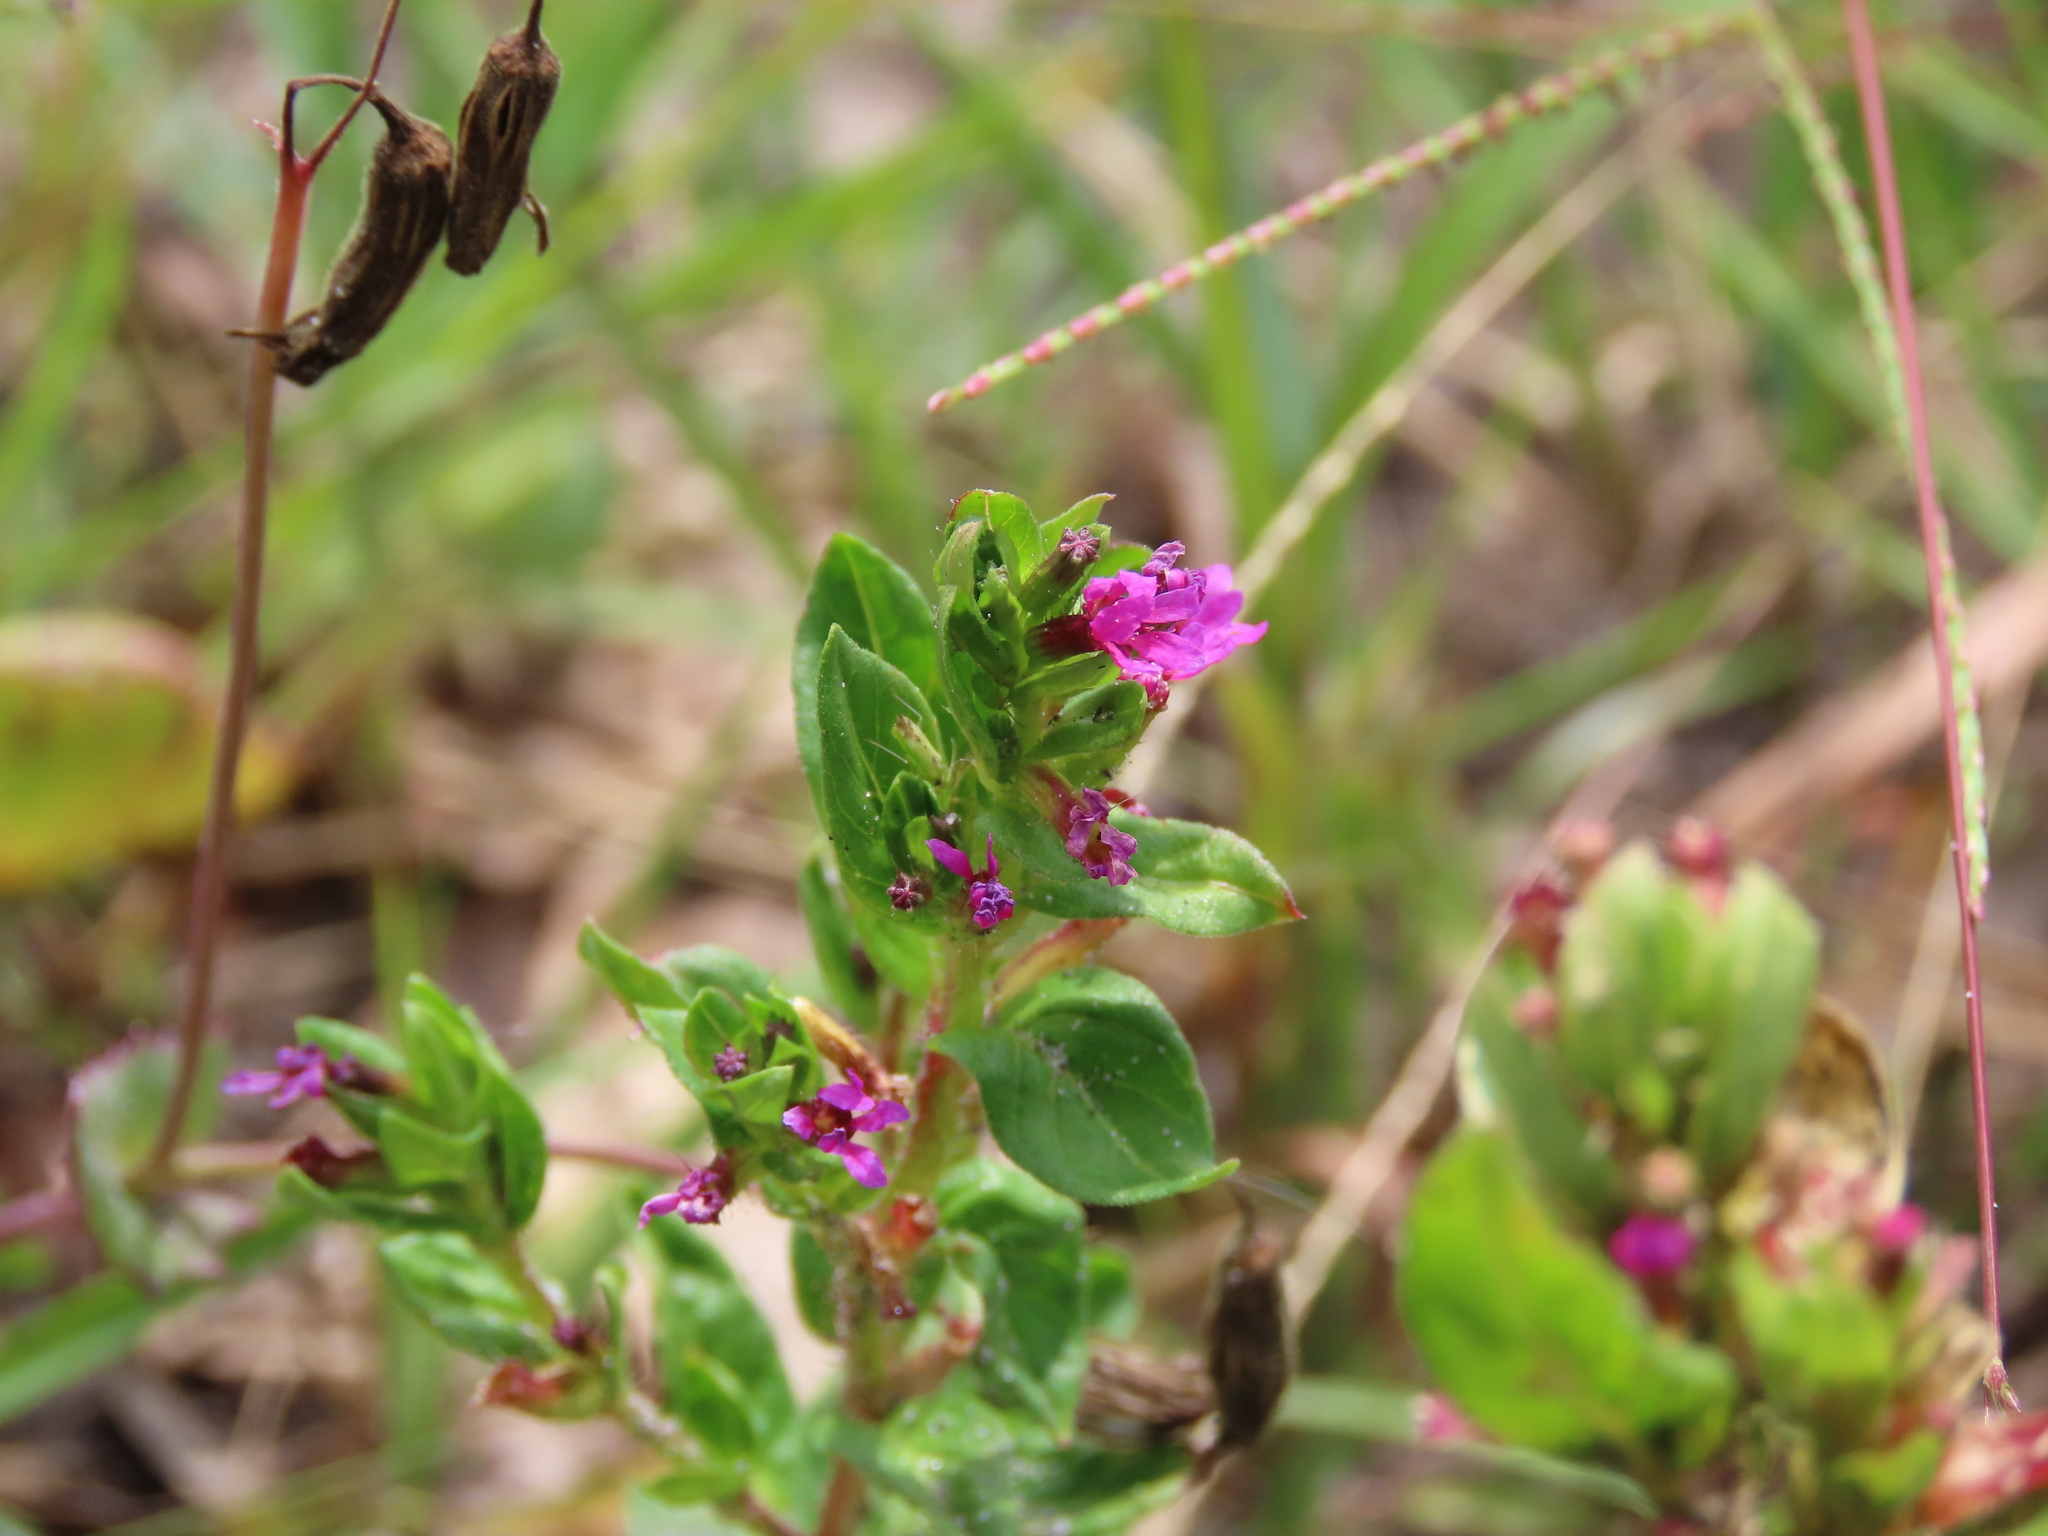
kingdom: Plantae
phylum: Tracheophyta
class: Magnoliopsida
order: Myrtales
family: Lythraceae
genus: Cuphea
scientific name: Cuphea carthagenensis
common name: Colombian waxweed
